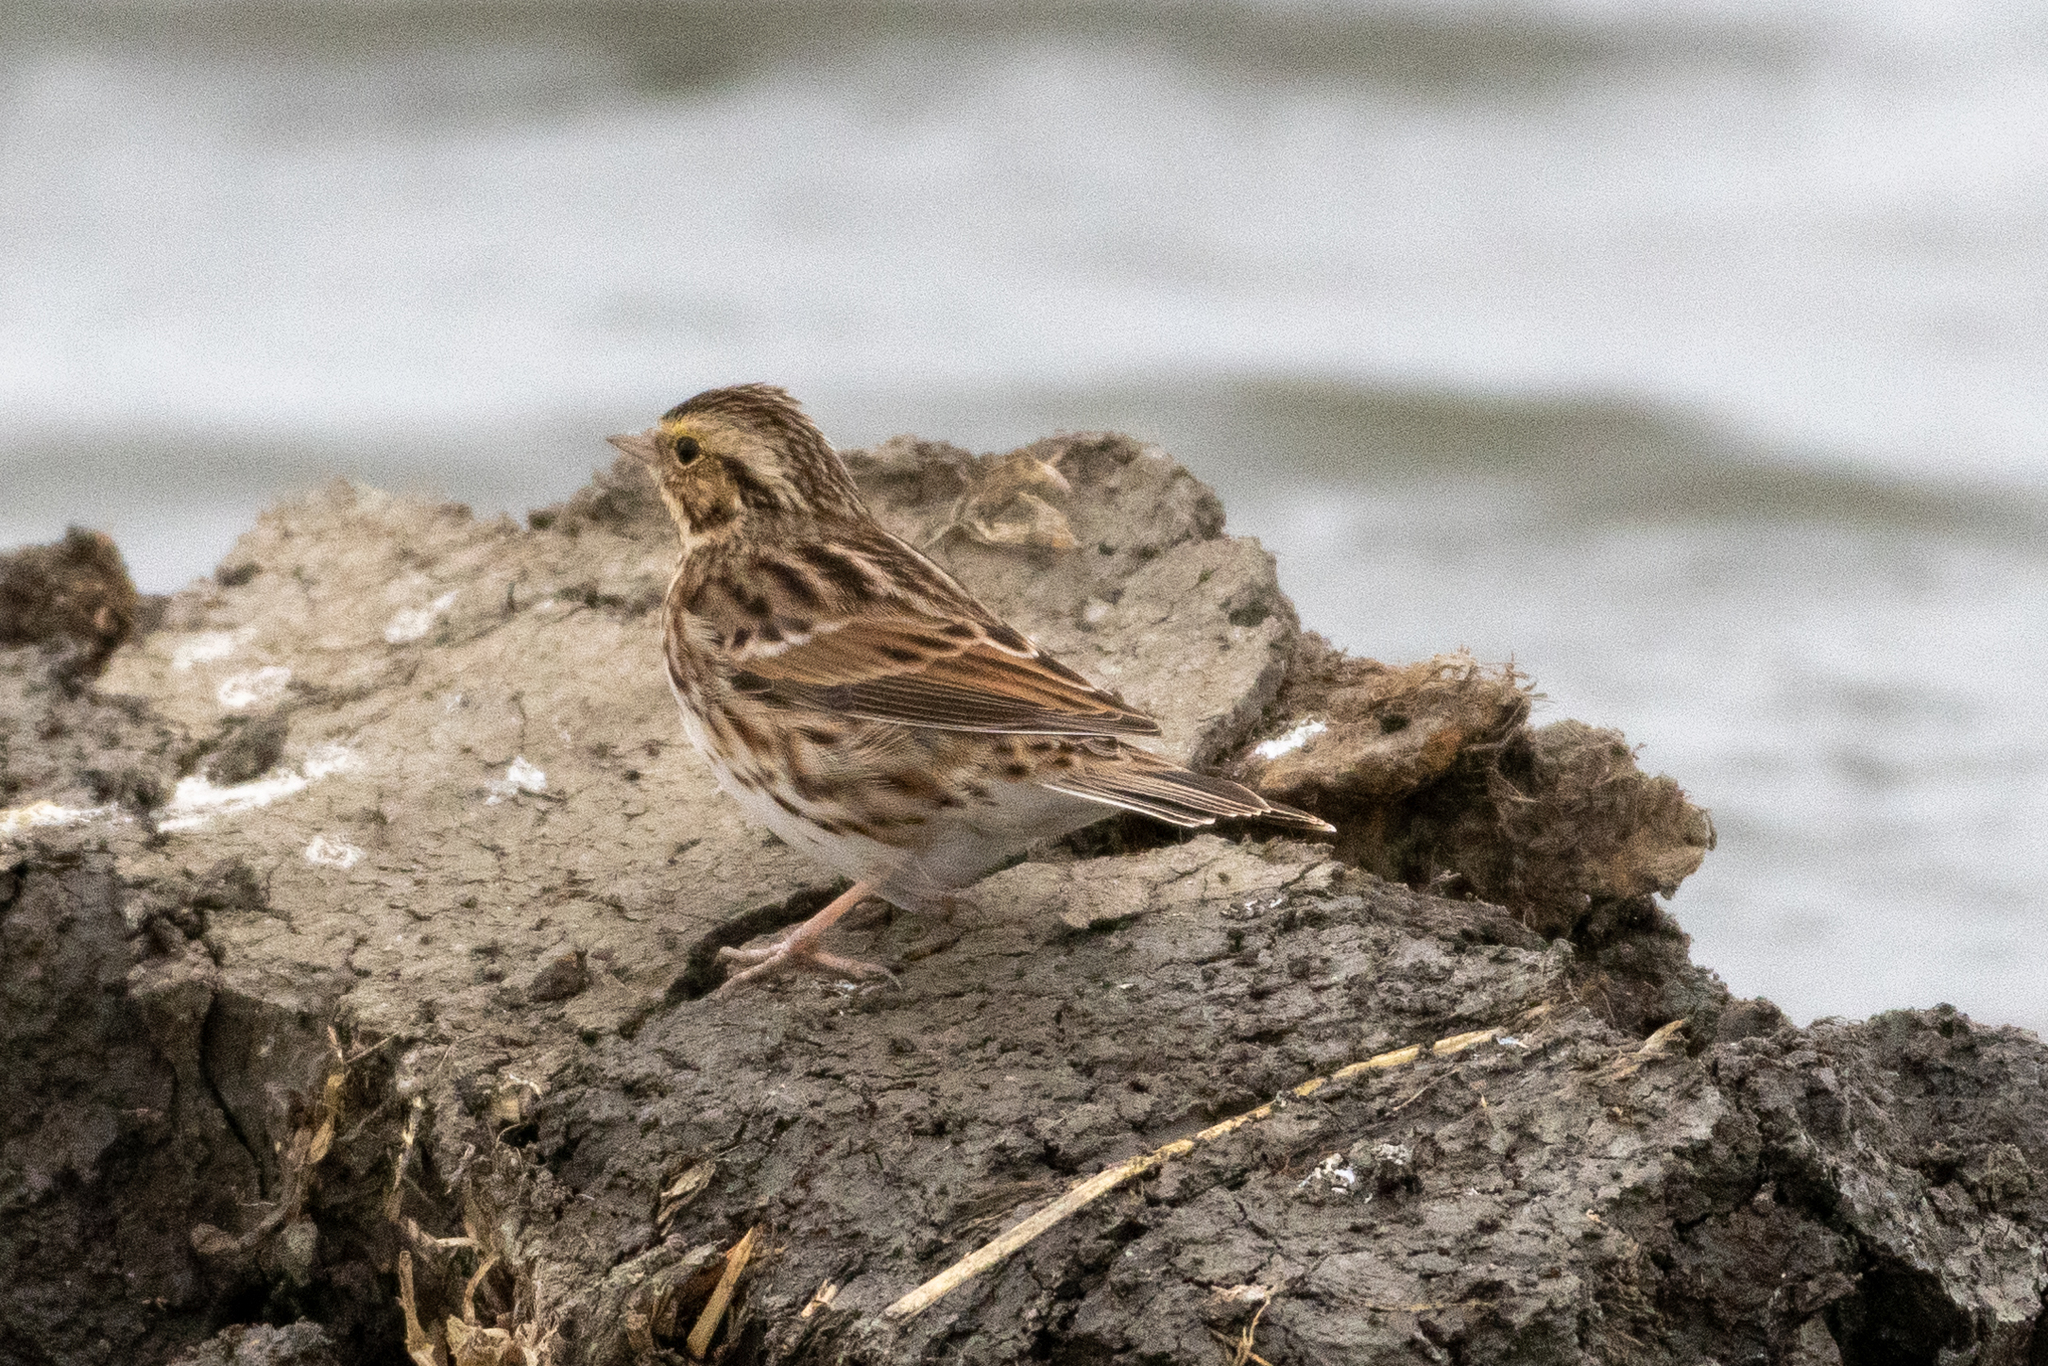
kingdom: Animalia
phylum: Chordata
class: Aves
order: Passeriformes
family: Passerellidae
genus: Passerculus
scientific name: Passerculus sandwichensis
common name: Savannah sparrow
